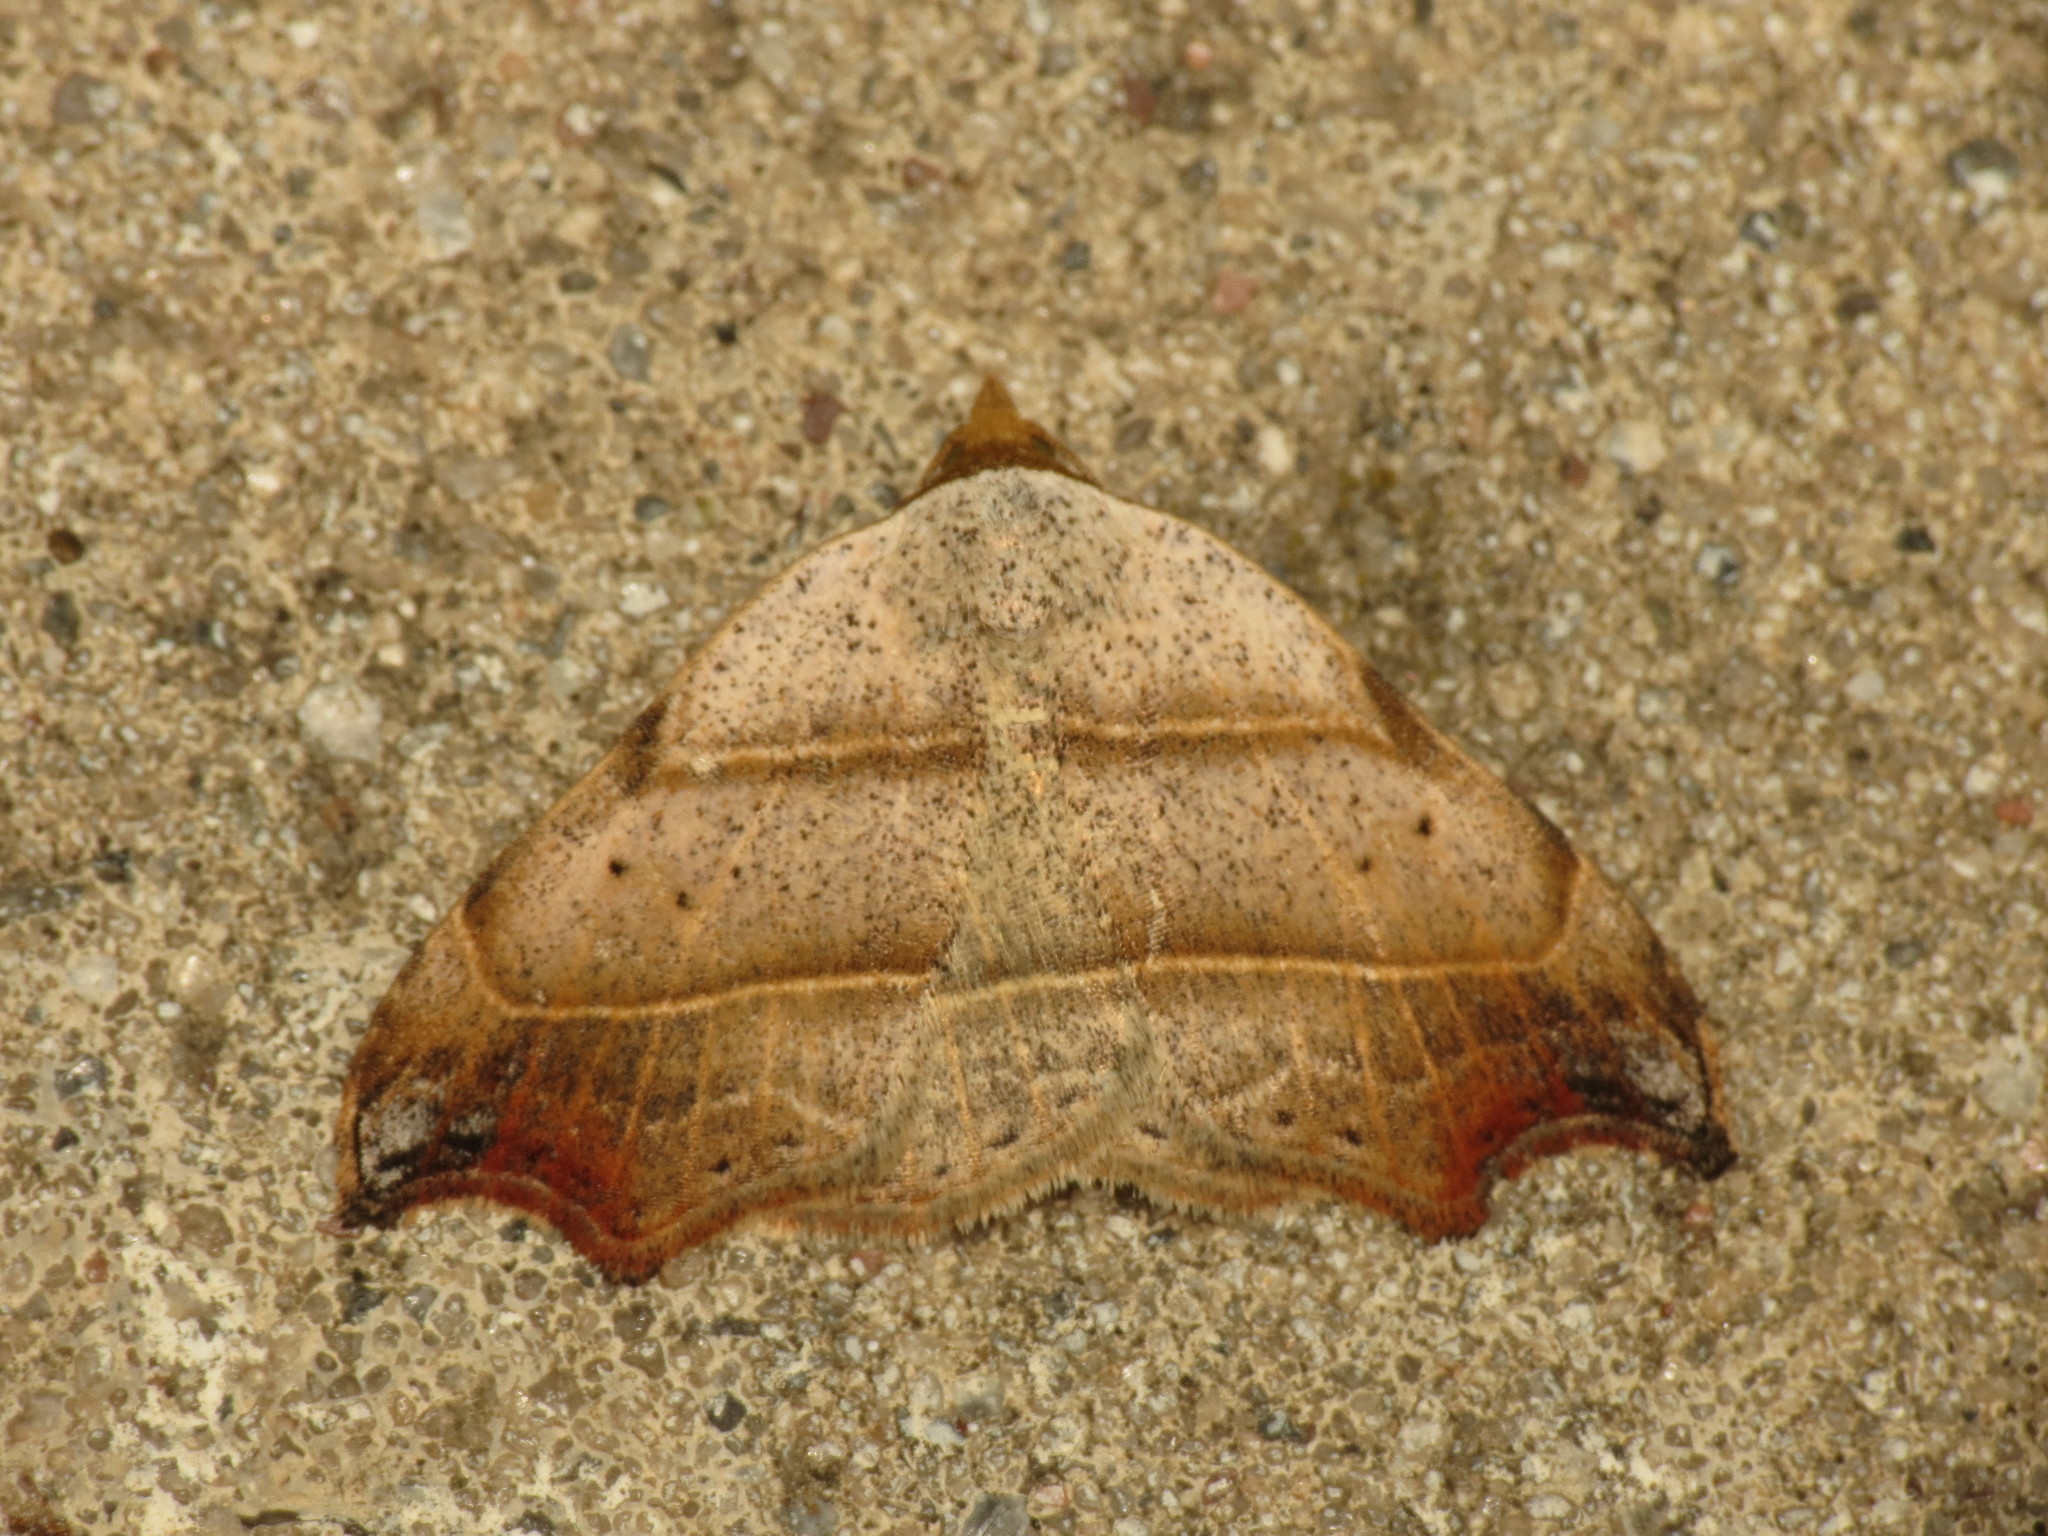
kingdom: Animalia
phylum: Arthropoda
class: Insecta
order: Lepidoptera
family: Erebidae
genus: Laspeyria
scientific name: Laspeyria flexula
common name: Beautiful hook-tip
